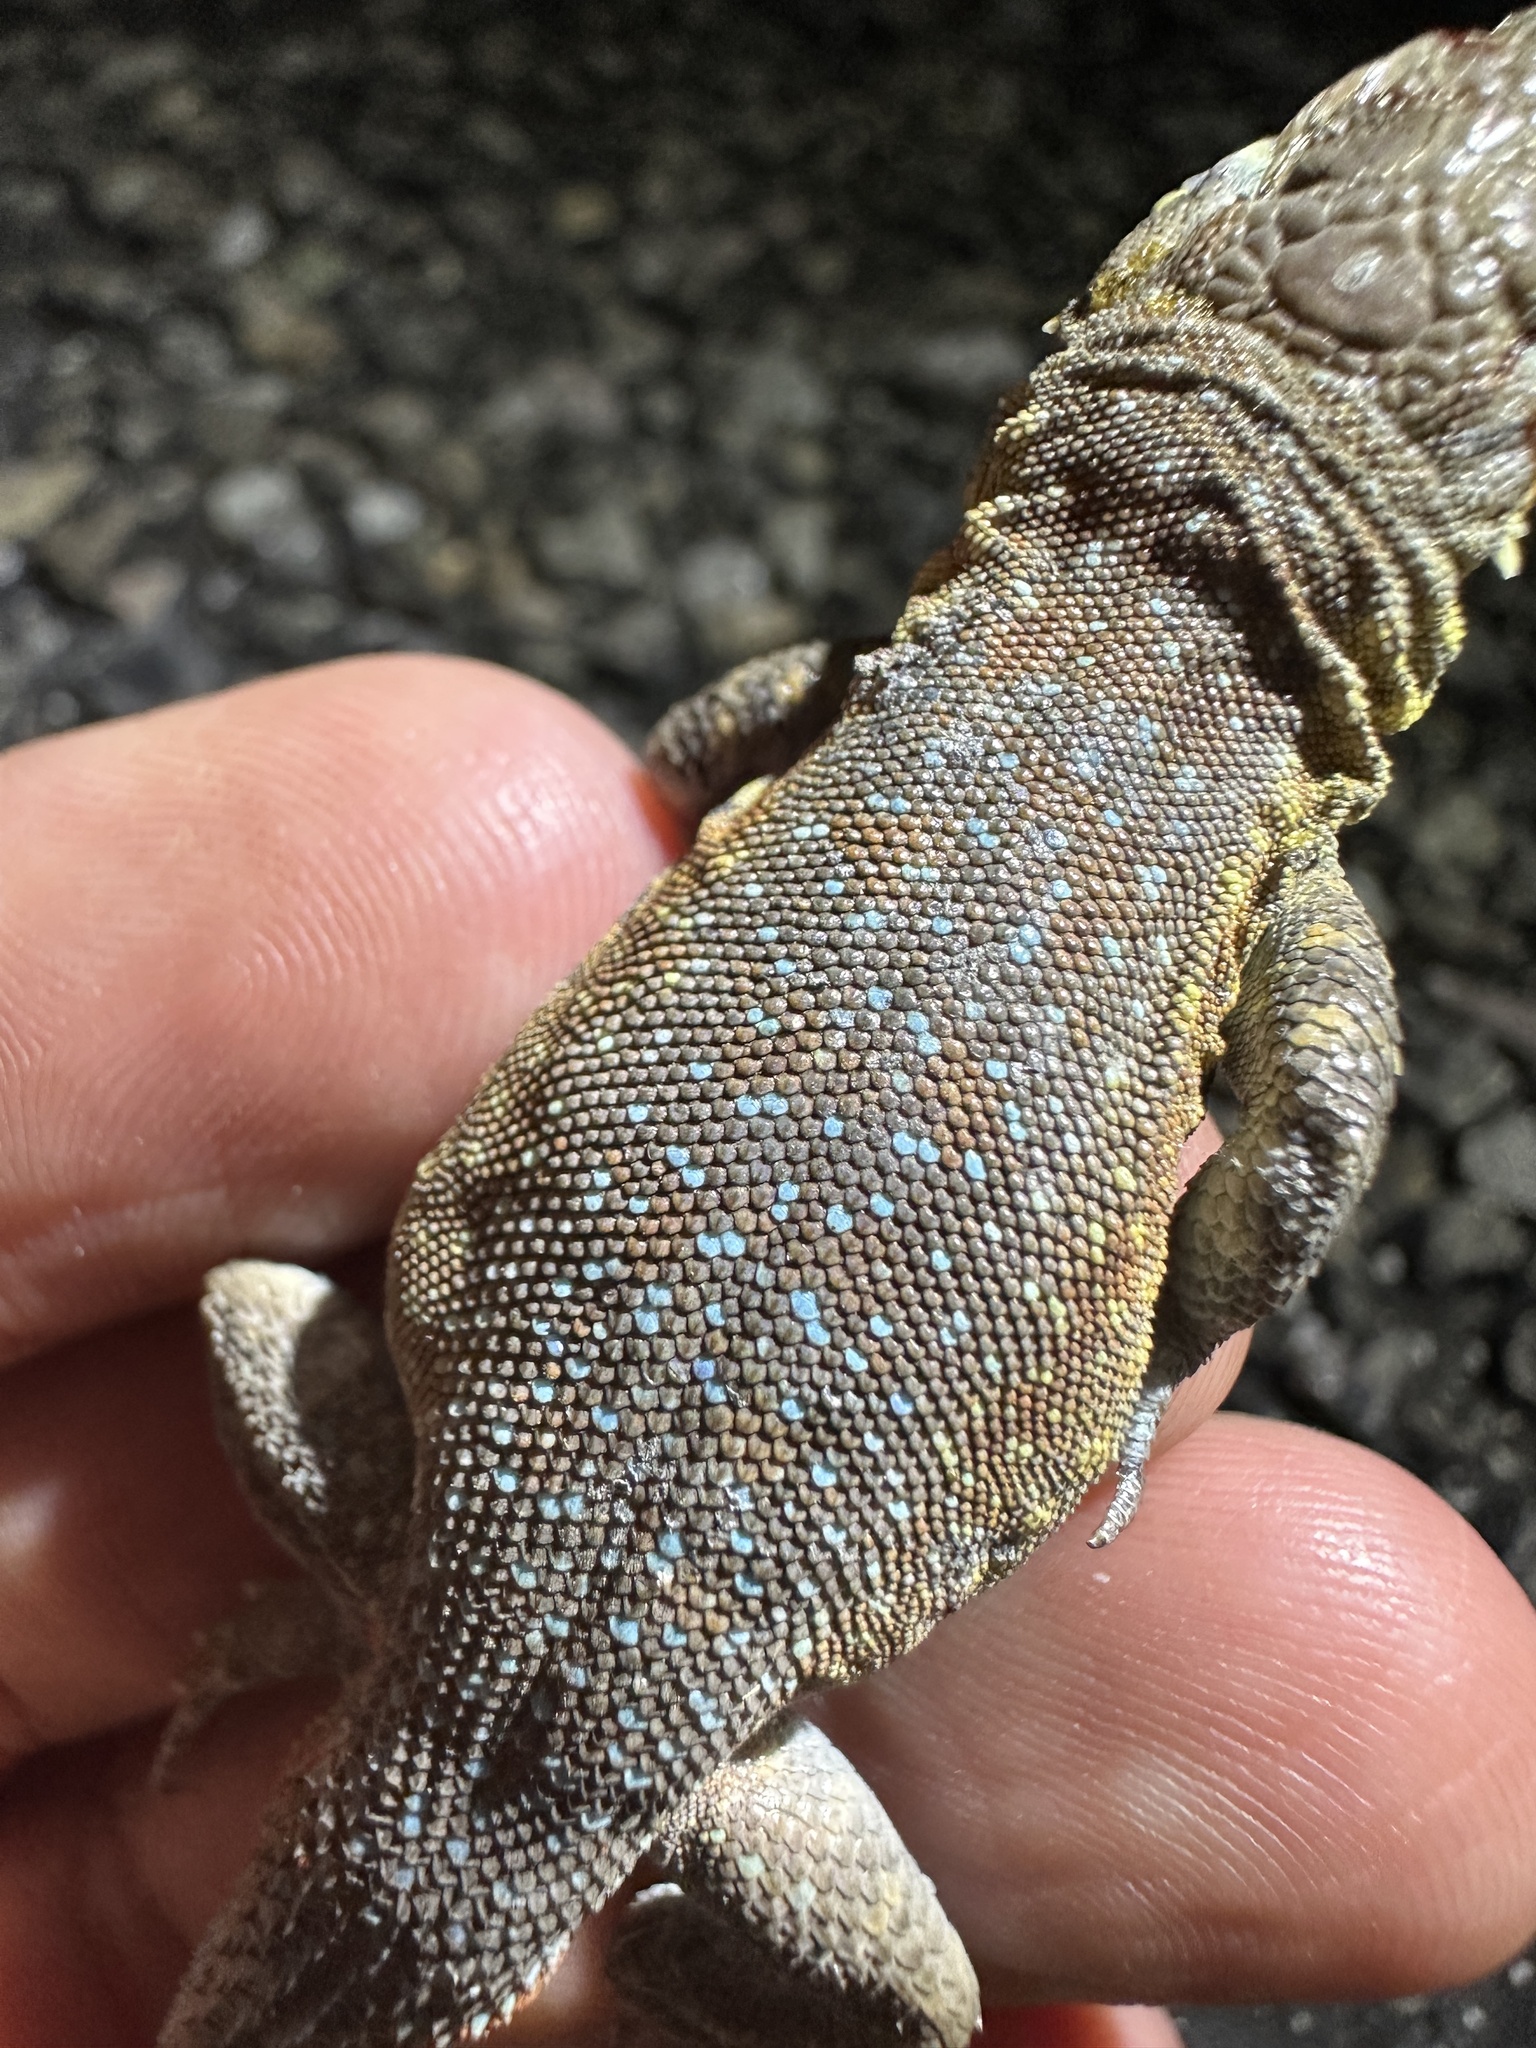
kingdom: Animalia
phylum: Chordata
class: Squamata
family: Phrynosomatidae
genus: Uta
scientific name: Uta stansburiana
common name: Side-blotched lizard
